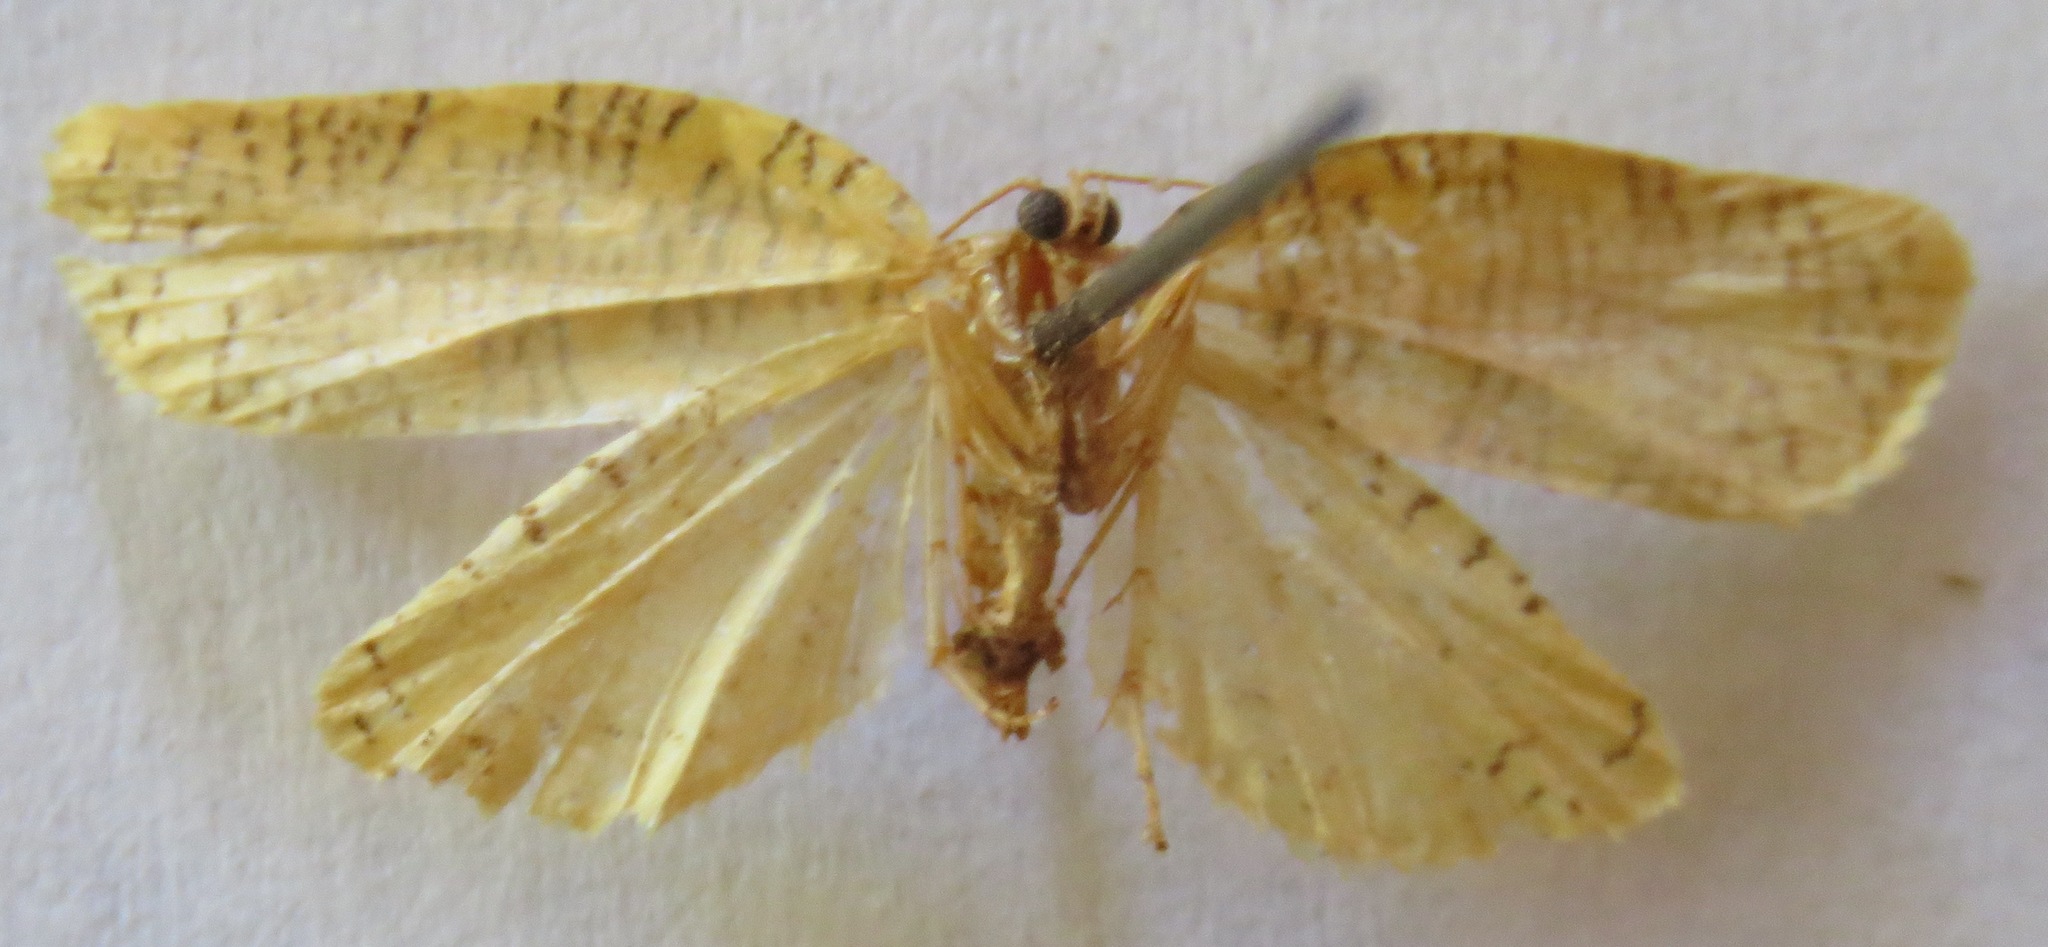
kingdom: Animalia
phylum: Arthropoda
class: Insecta
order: Lepidoptera
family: Tortricidae
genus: Templemania
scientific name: Templemania animosana
